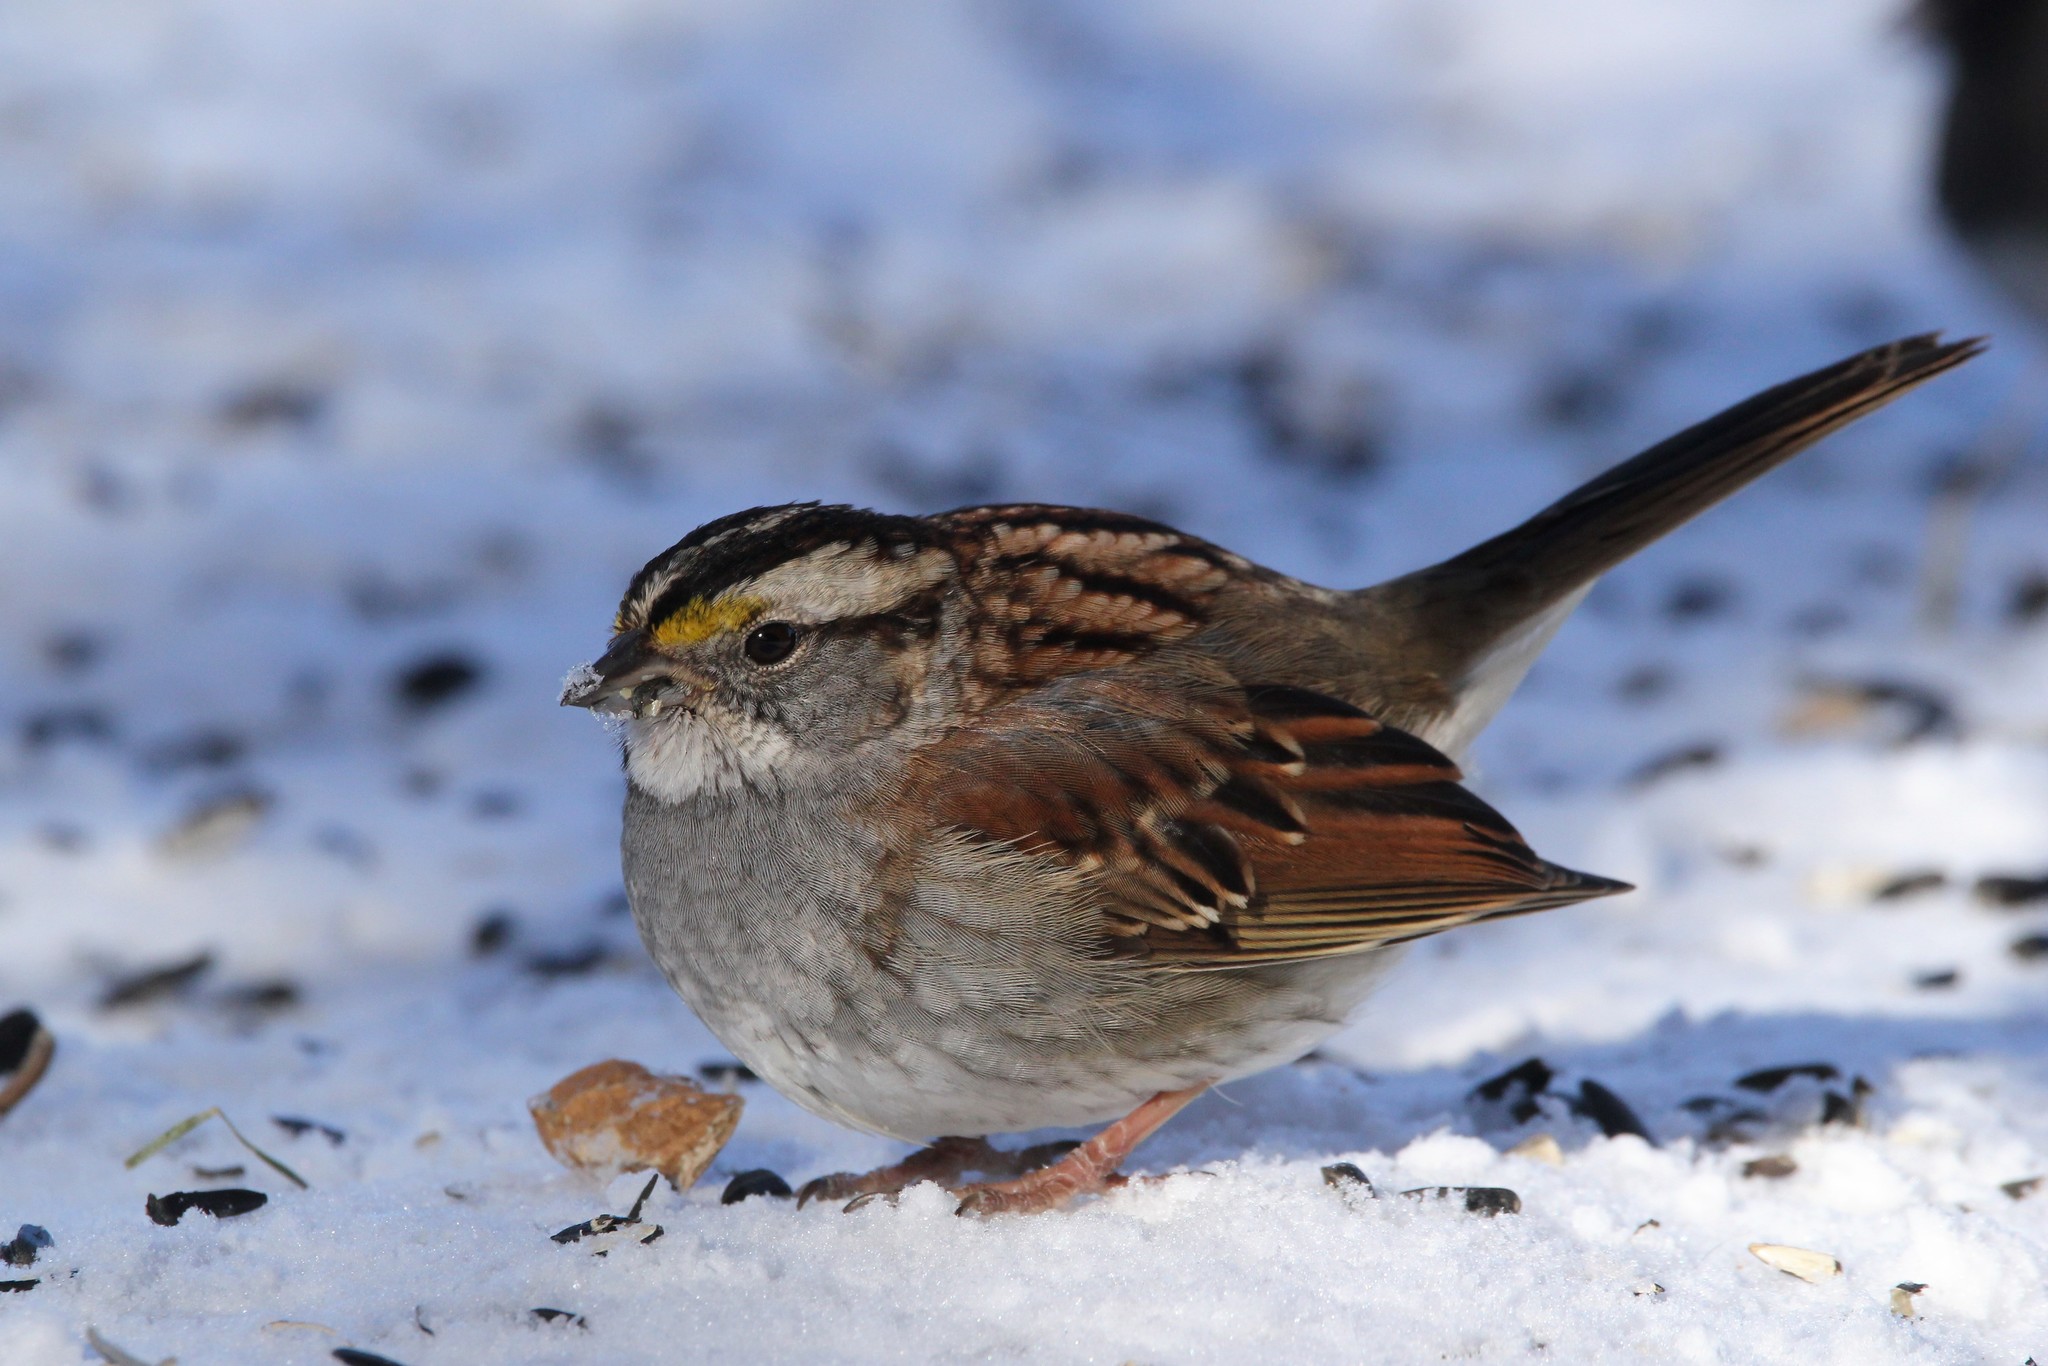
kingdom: Animalia
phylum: Chordata
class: Aves
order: Passeriformes
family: Passerellidae
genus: Zonotrichia
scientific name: Zonotrichia albicollis
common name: White-throated sparrow
